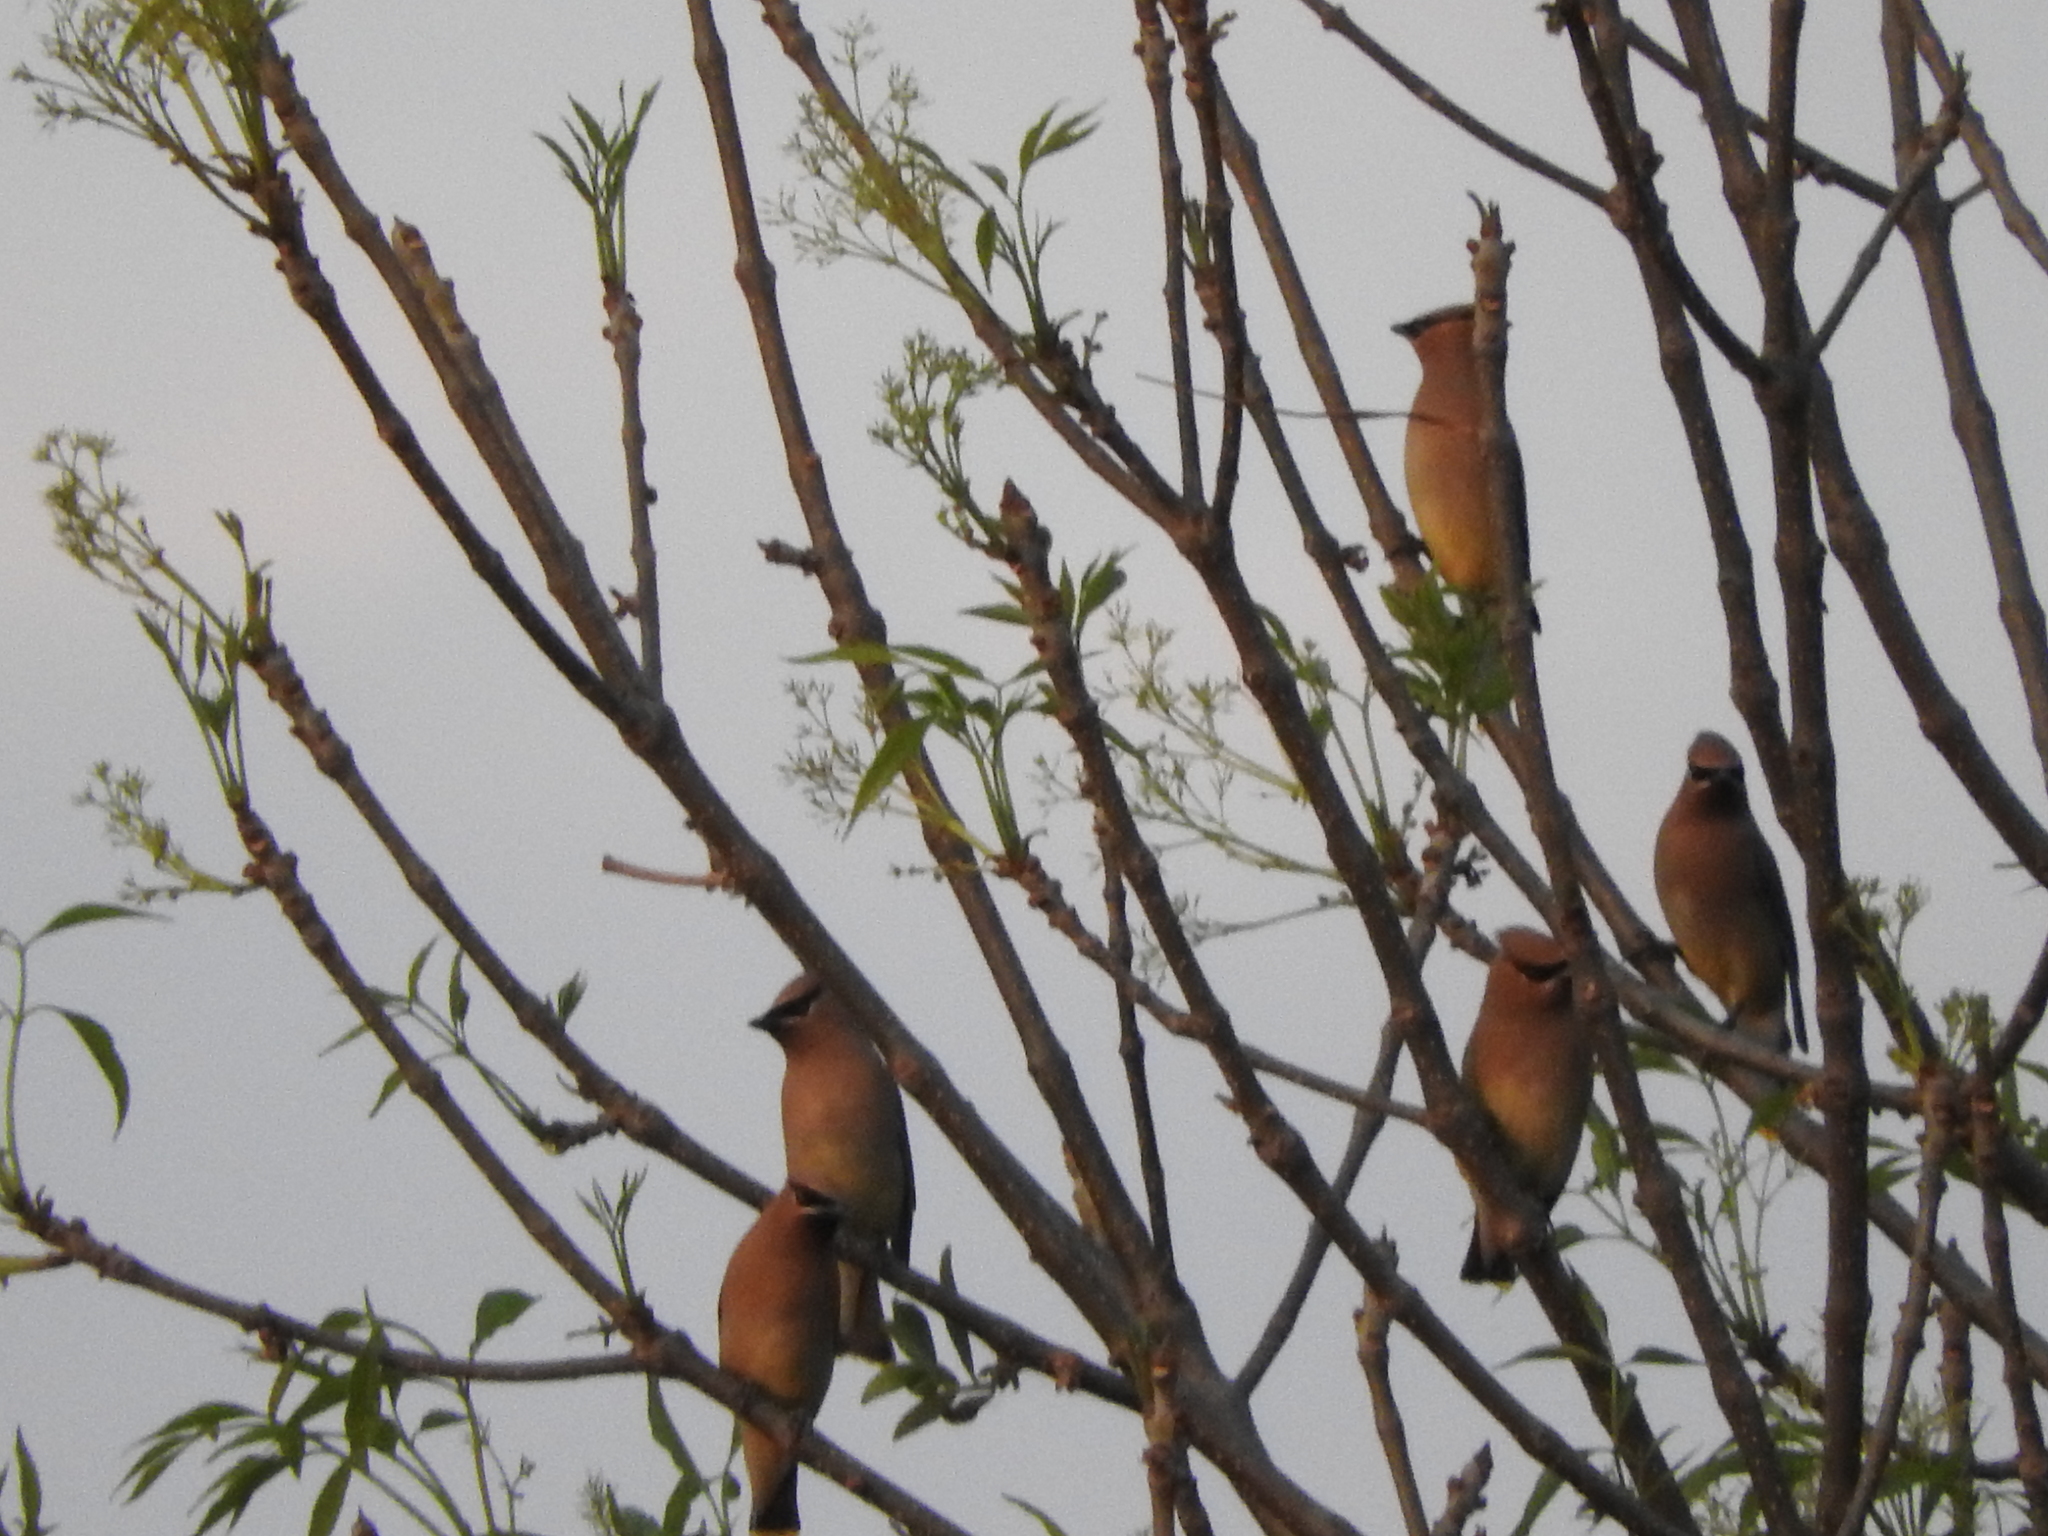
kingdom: Animalia
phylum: Chordata
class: Aves
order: Passeriformes
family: Bombycillidae
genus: Bombycilla
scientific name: Bombycilla cedrorum
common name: Cedar waxwing
